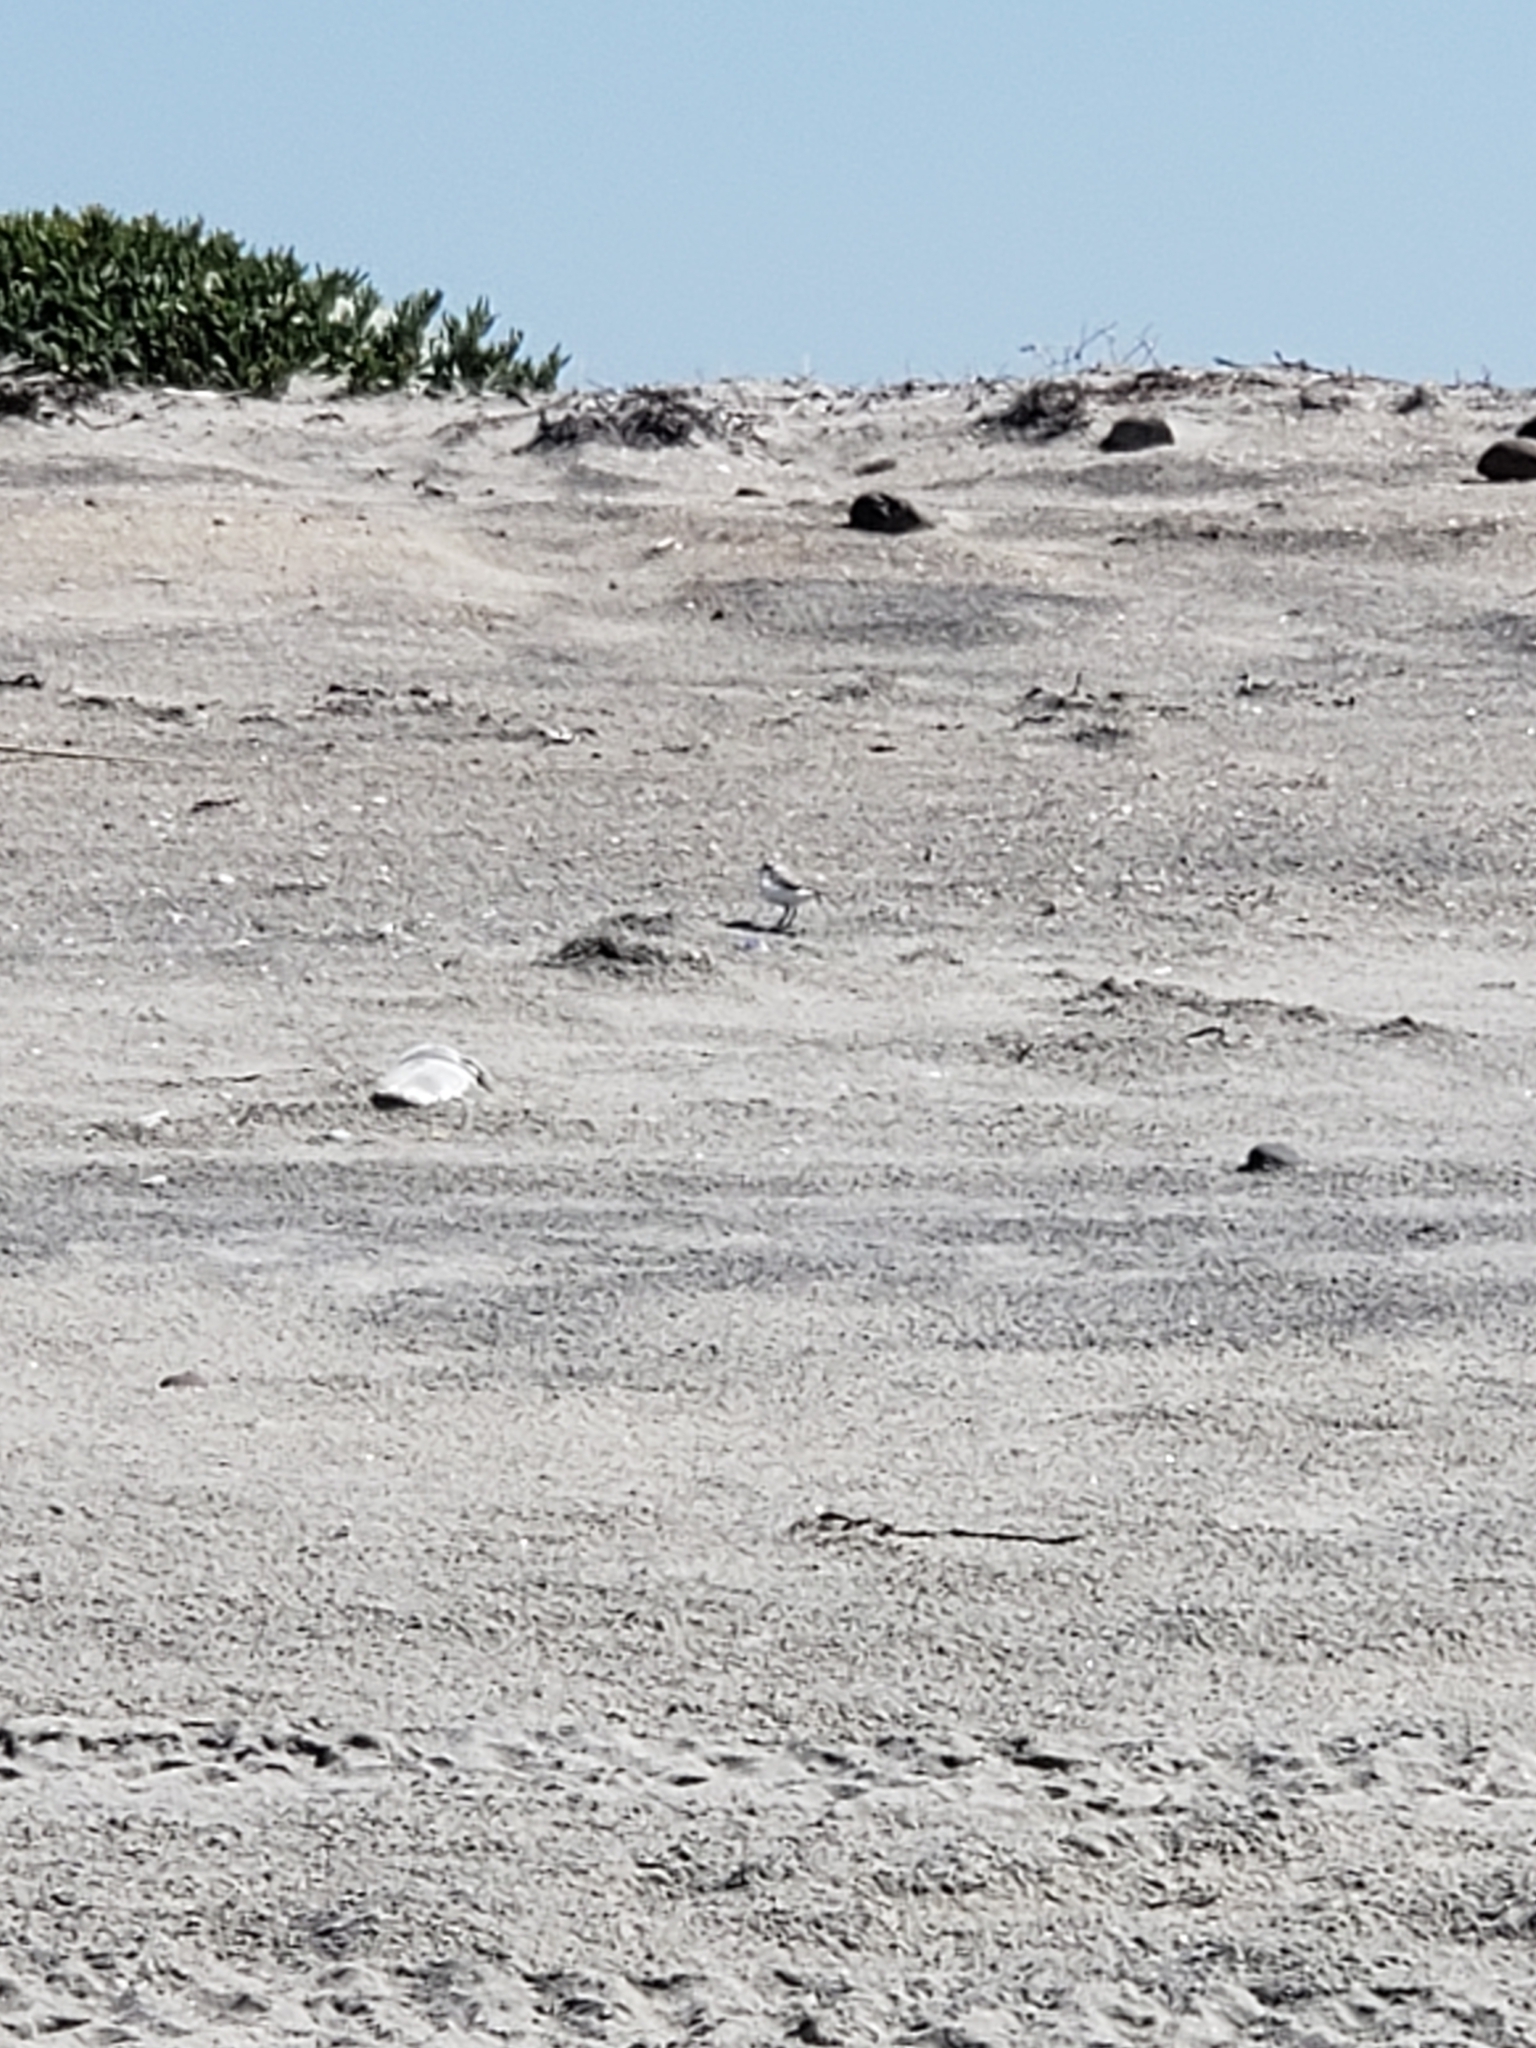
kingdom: Animalia
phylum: Chordata
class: Aves
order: Charadriiformes
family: Charadriidae
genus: Anarhynchus
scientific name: Anarhynchus
